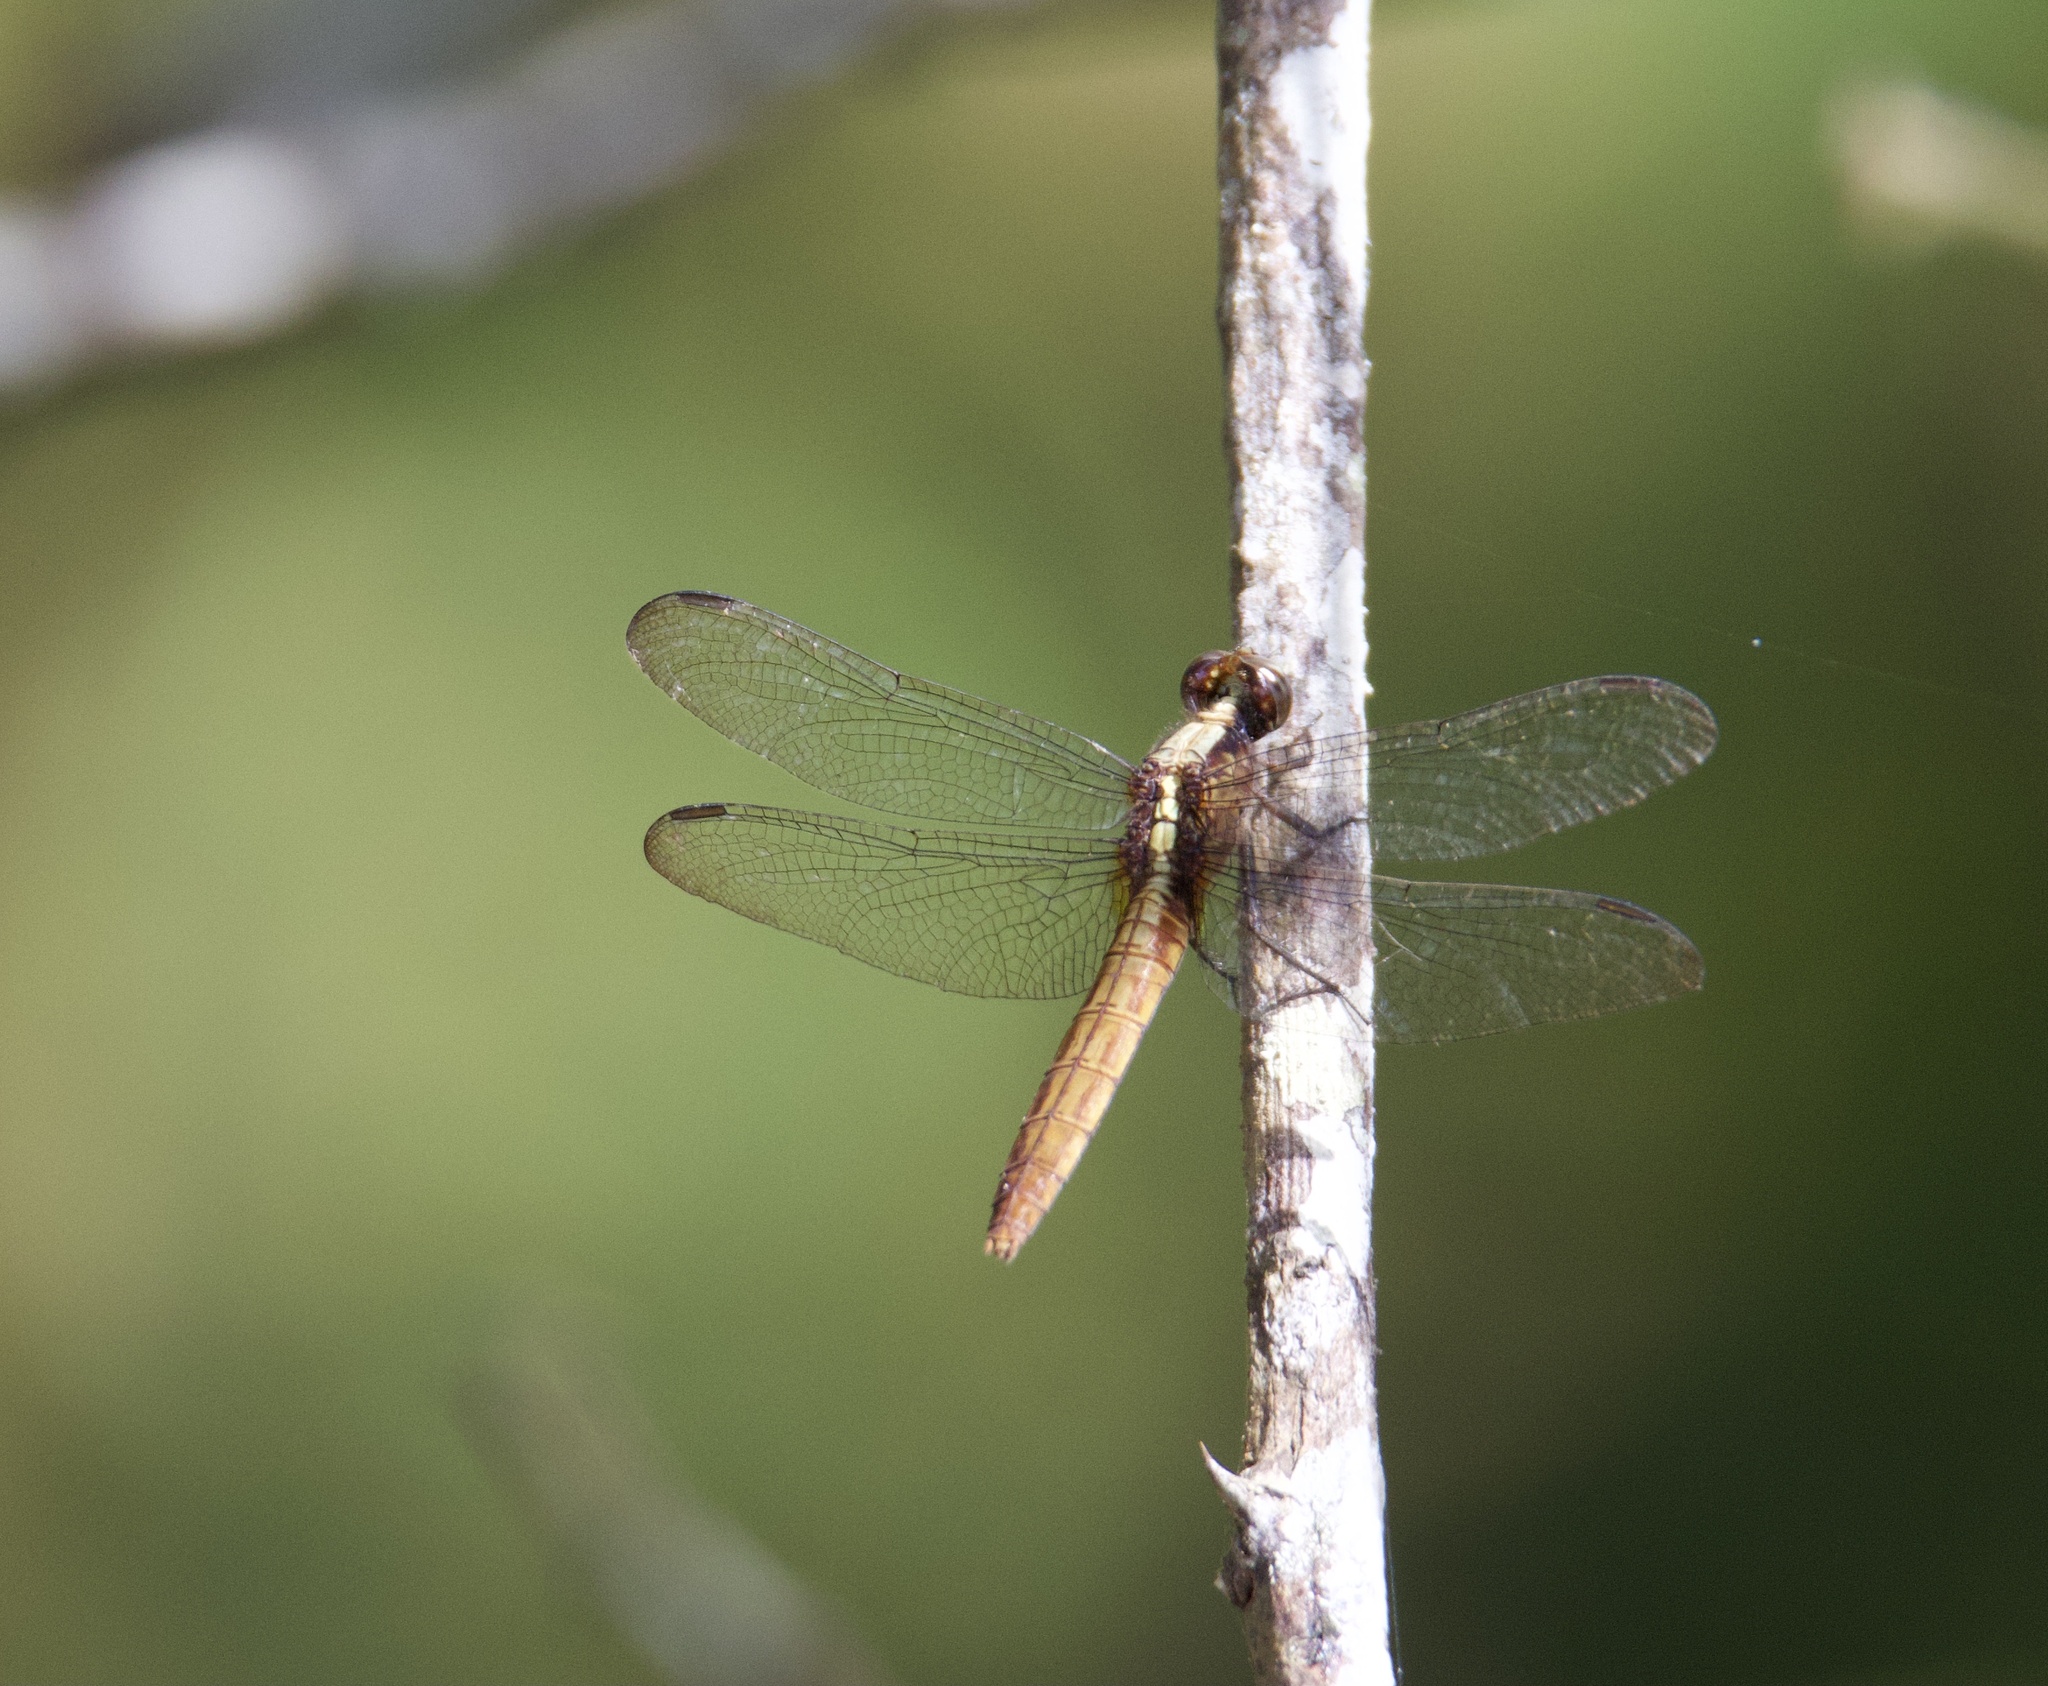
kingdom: Animalia
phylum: Arthropoda
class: Insecta
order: Odonata
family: Libellulidae
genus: Erythemis
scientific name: Erythemis peruviana
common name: Flame-tailed pondhawk
